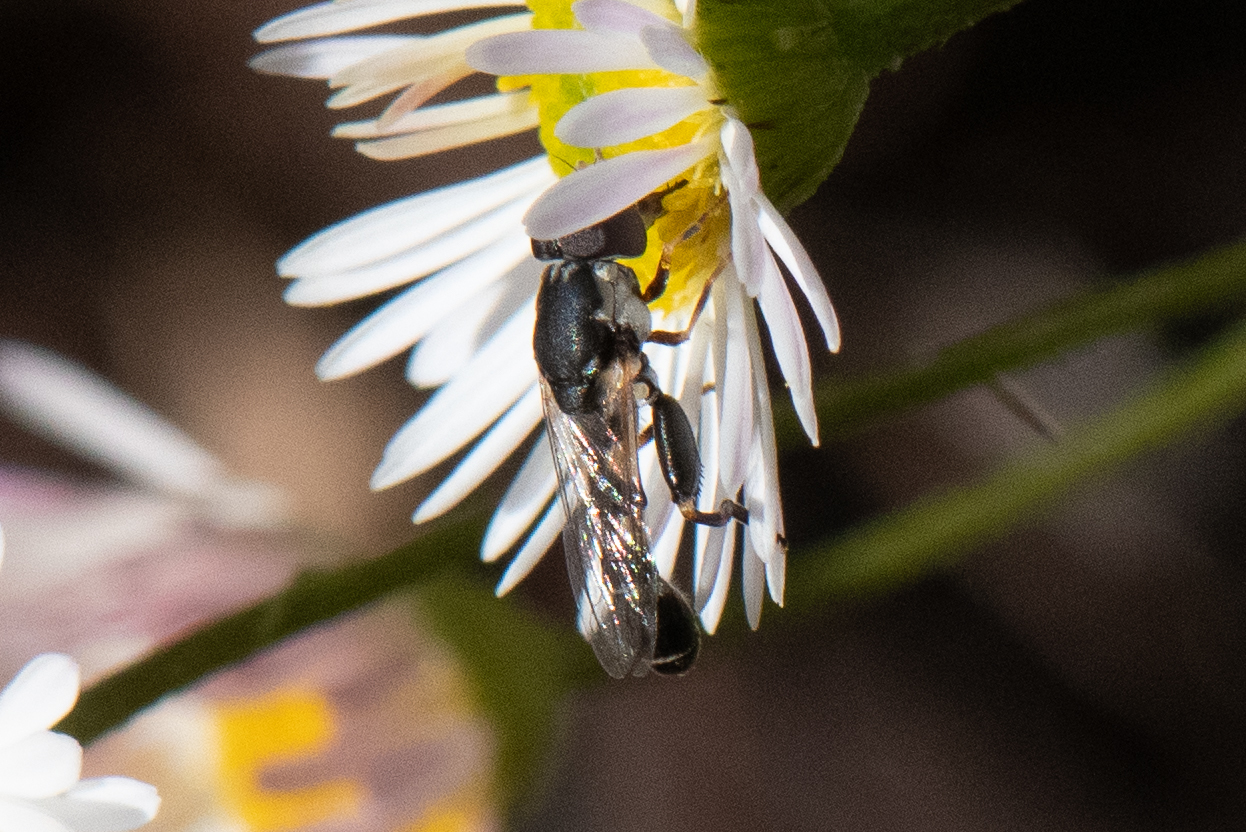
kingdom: Animalia
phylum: Arthropoda
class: Insecta
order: Diptera
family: Syrphidae
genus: Syritta
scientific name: Syritta pipiens
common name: Hover fly
